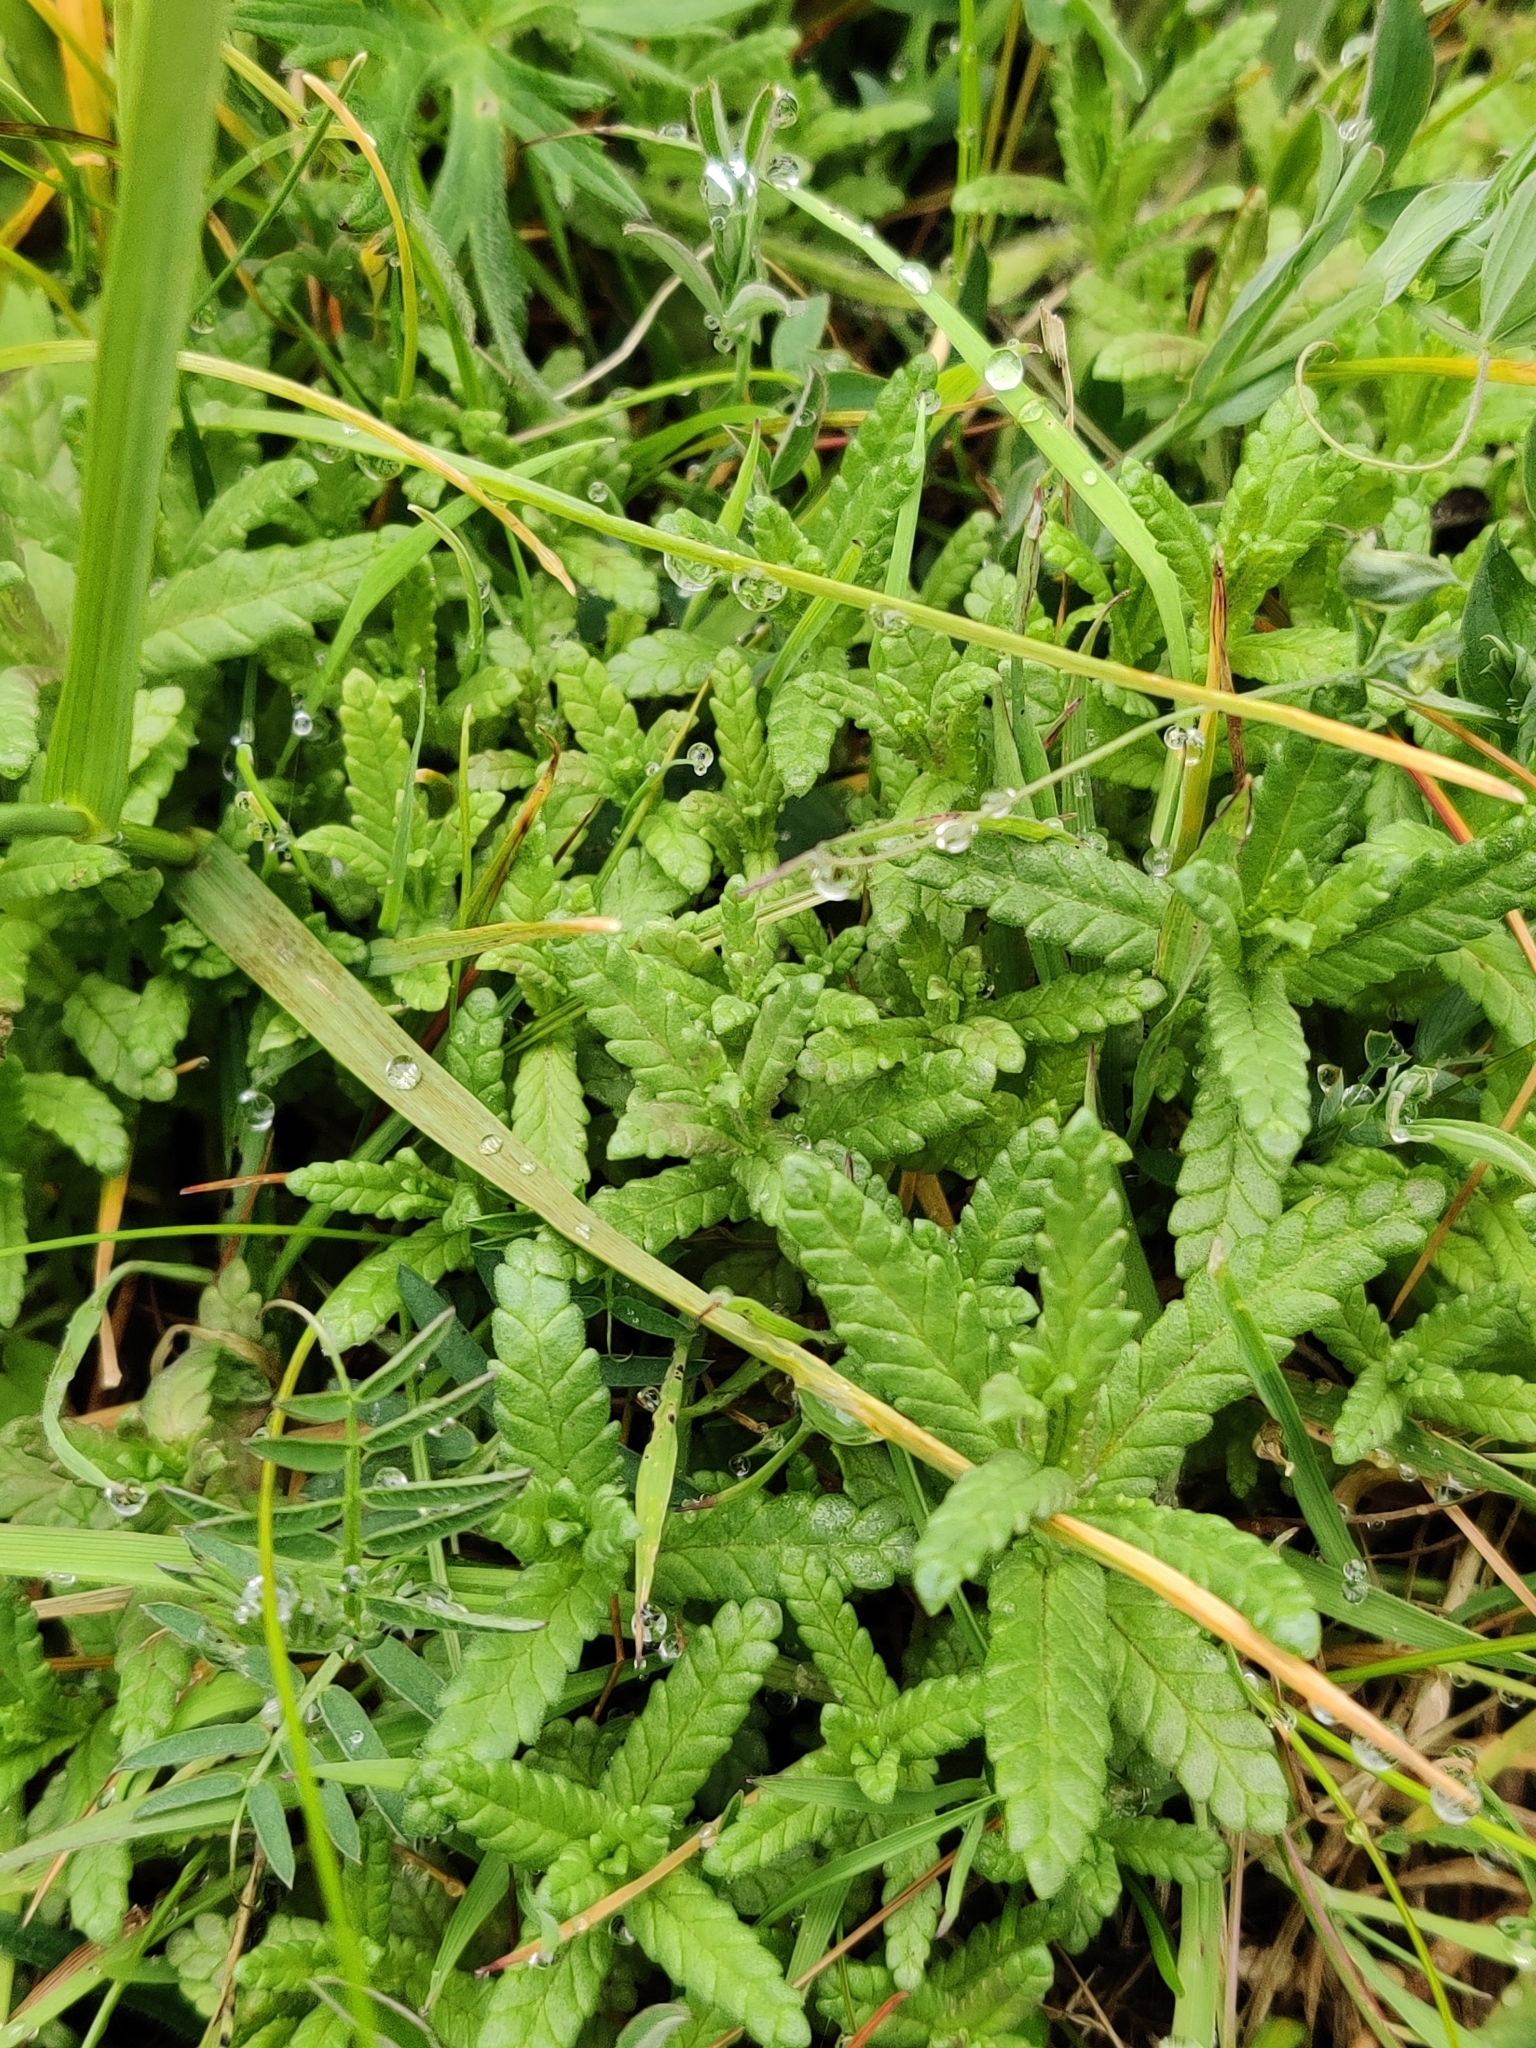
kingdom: Plantae
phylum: Tracheophyta
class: Magnoliopsida
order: Lamiales
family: Orobanchaceae
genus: Rhinanthus
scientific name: Rhinanthus minor
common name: Yellow-rattle
